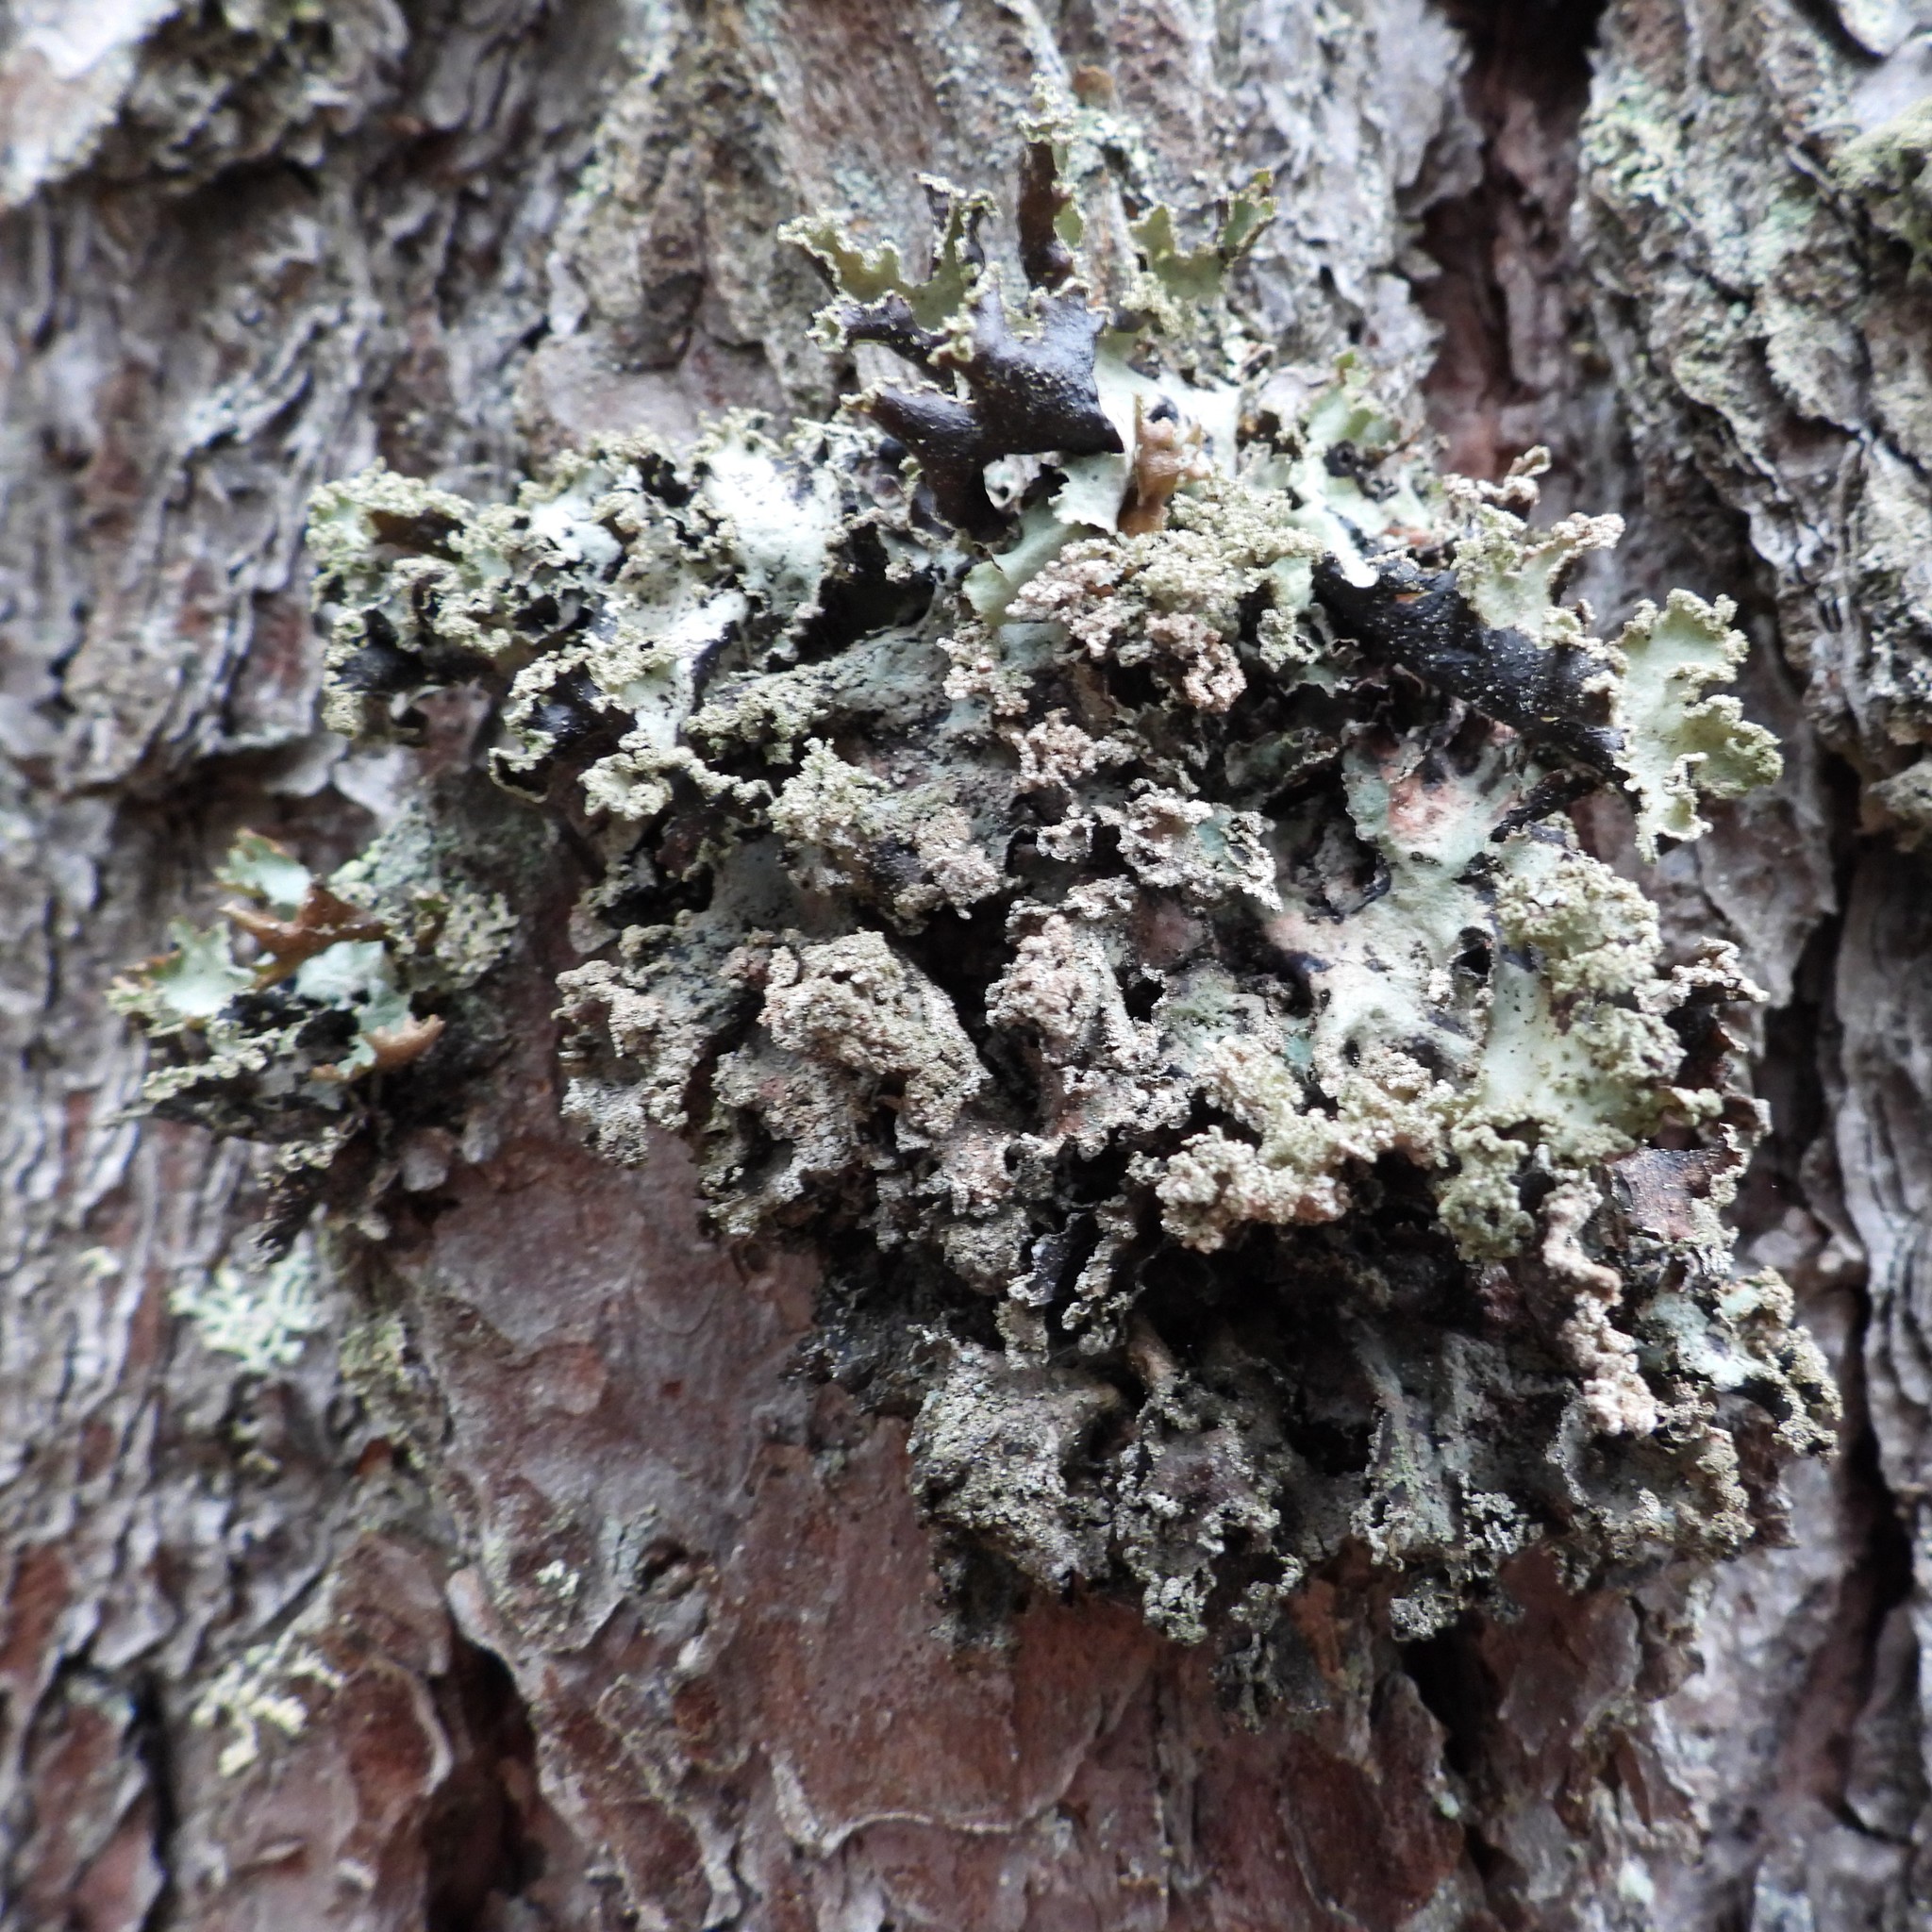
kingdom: Fungi
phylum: Ascomycota
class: Lecanoromycetes
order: Lecanorales
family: Parmeliaceae
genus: Platismatia
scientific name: Platismatia glauca
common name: Varied rag lichen
